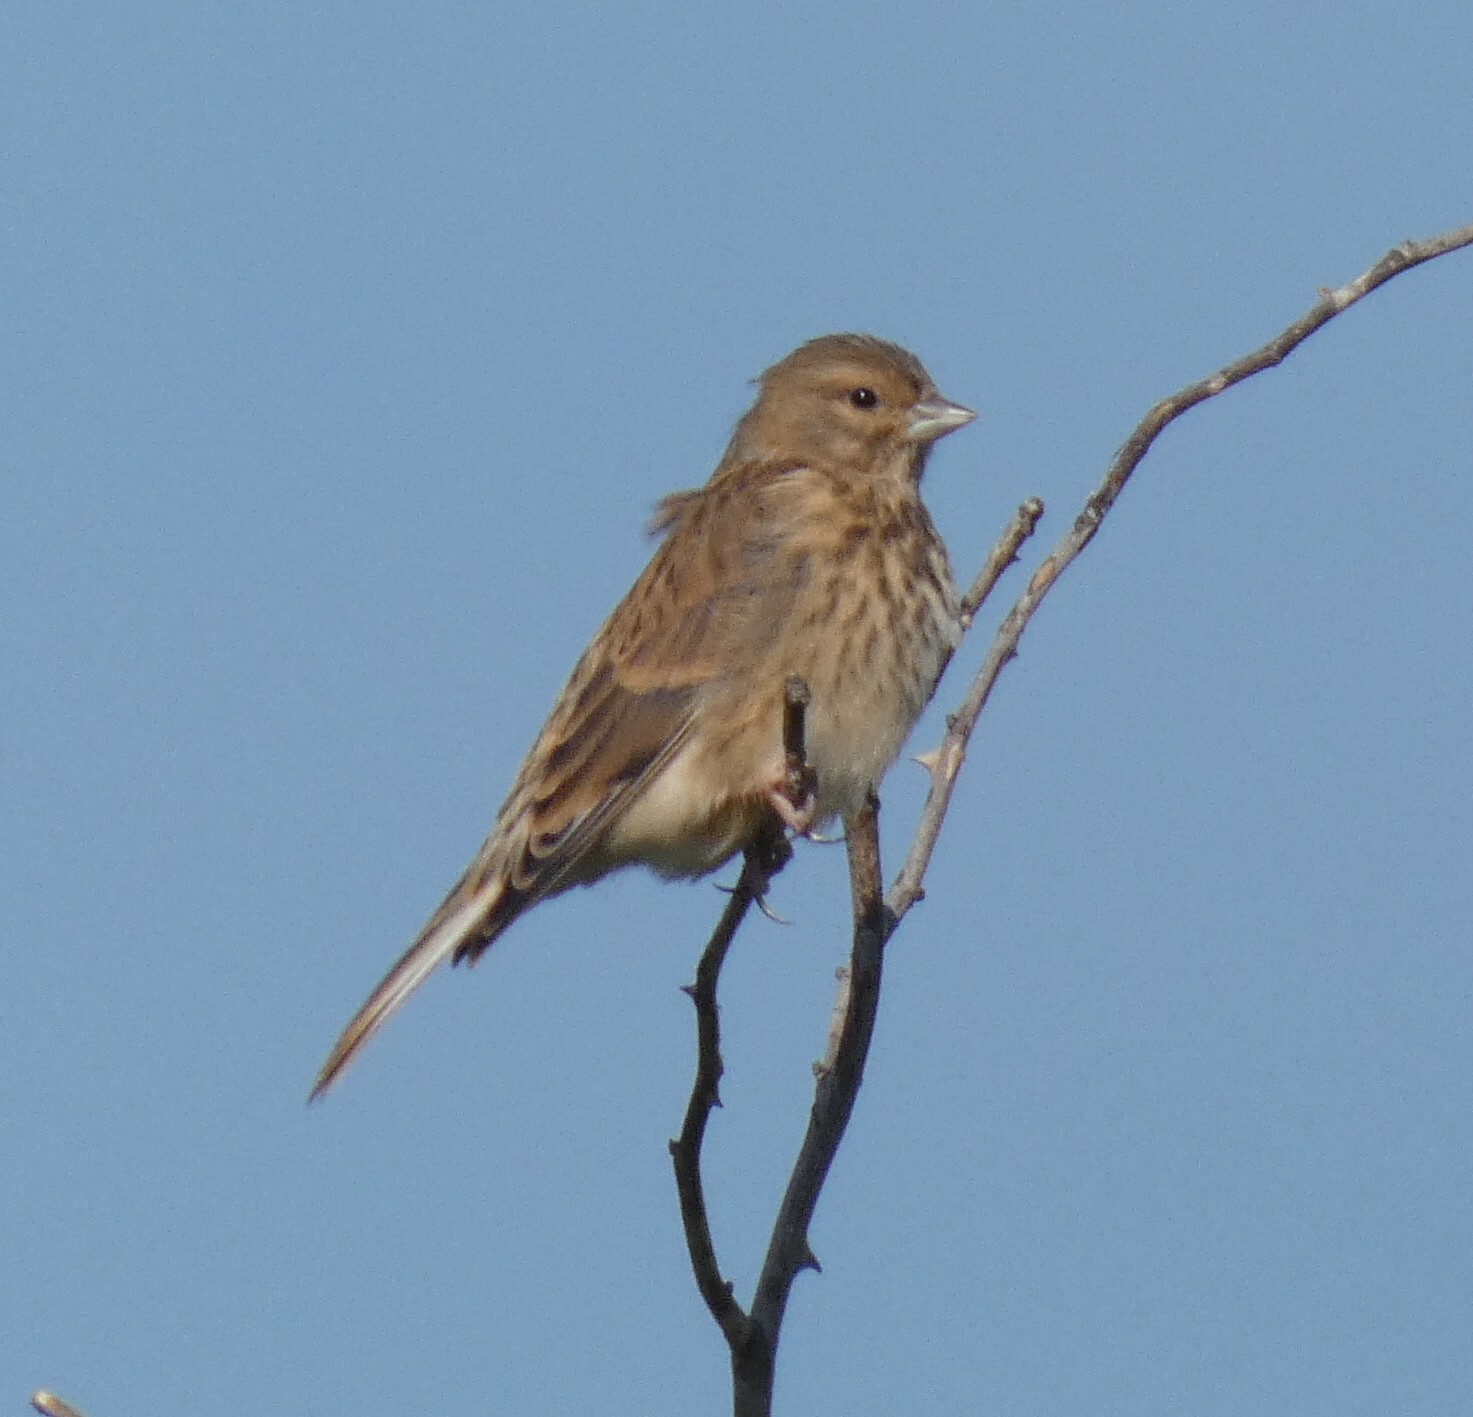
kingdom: Animalia
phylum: Chordata
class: Aves
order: Passeriformes
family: Fringillidae
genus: Linaria
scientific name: Linaria cannabina
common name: Common linnet
